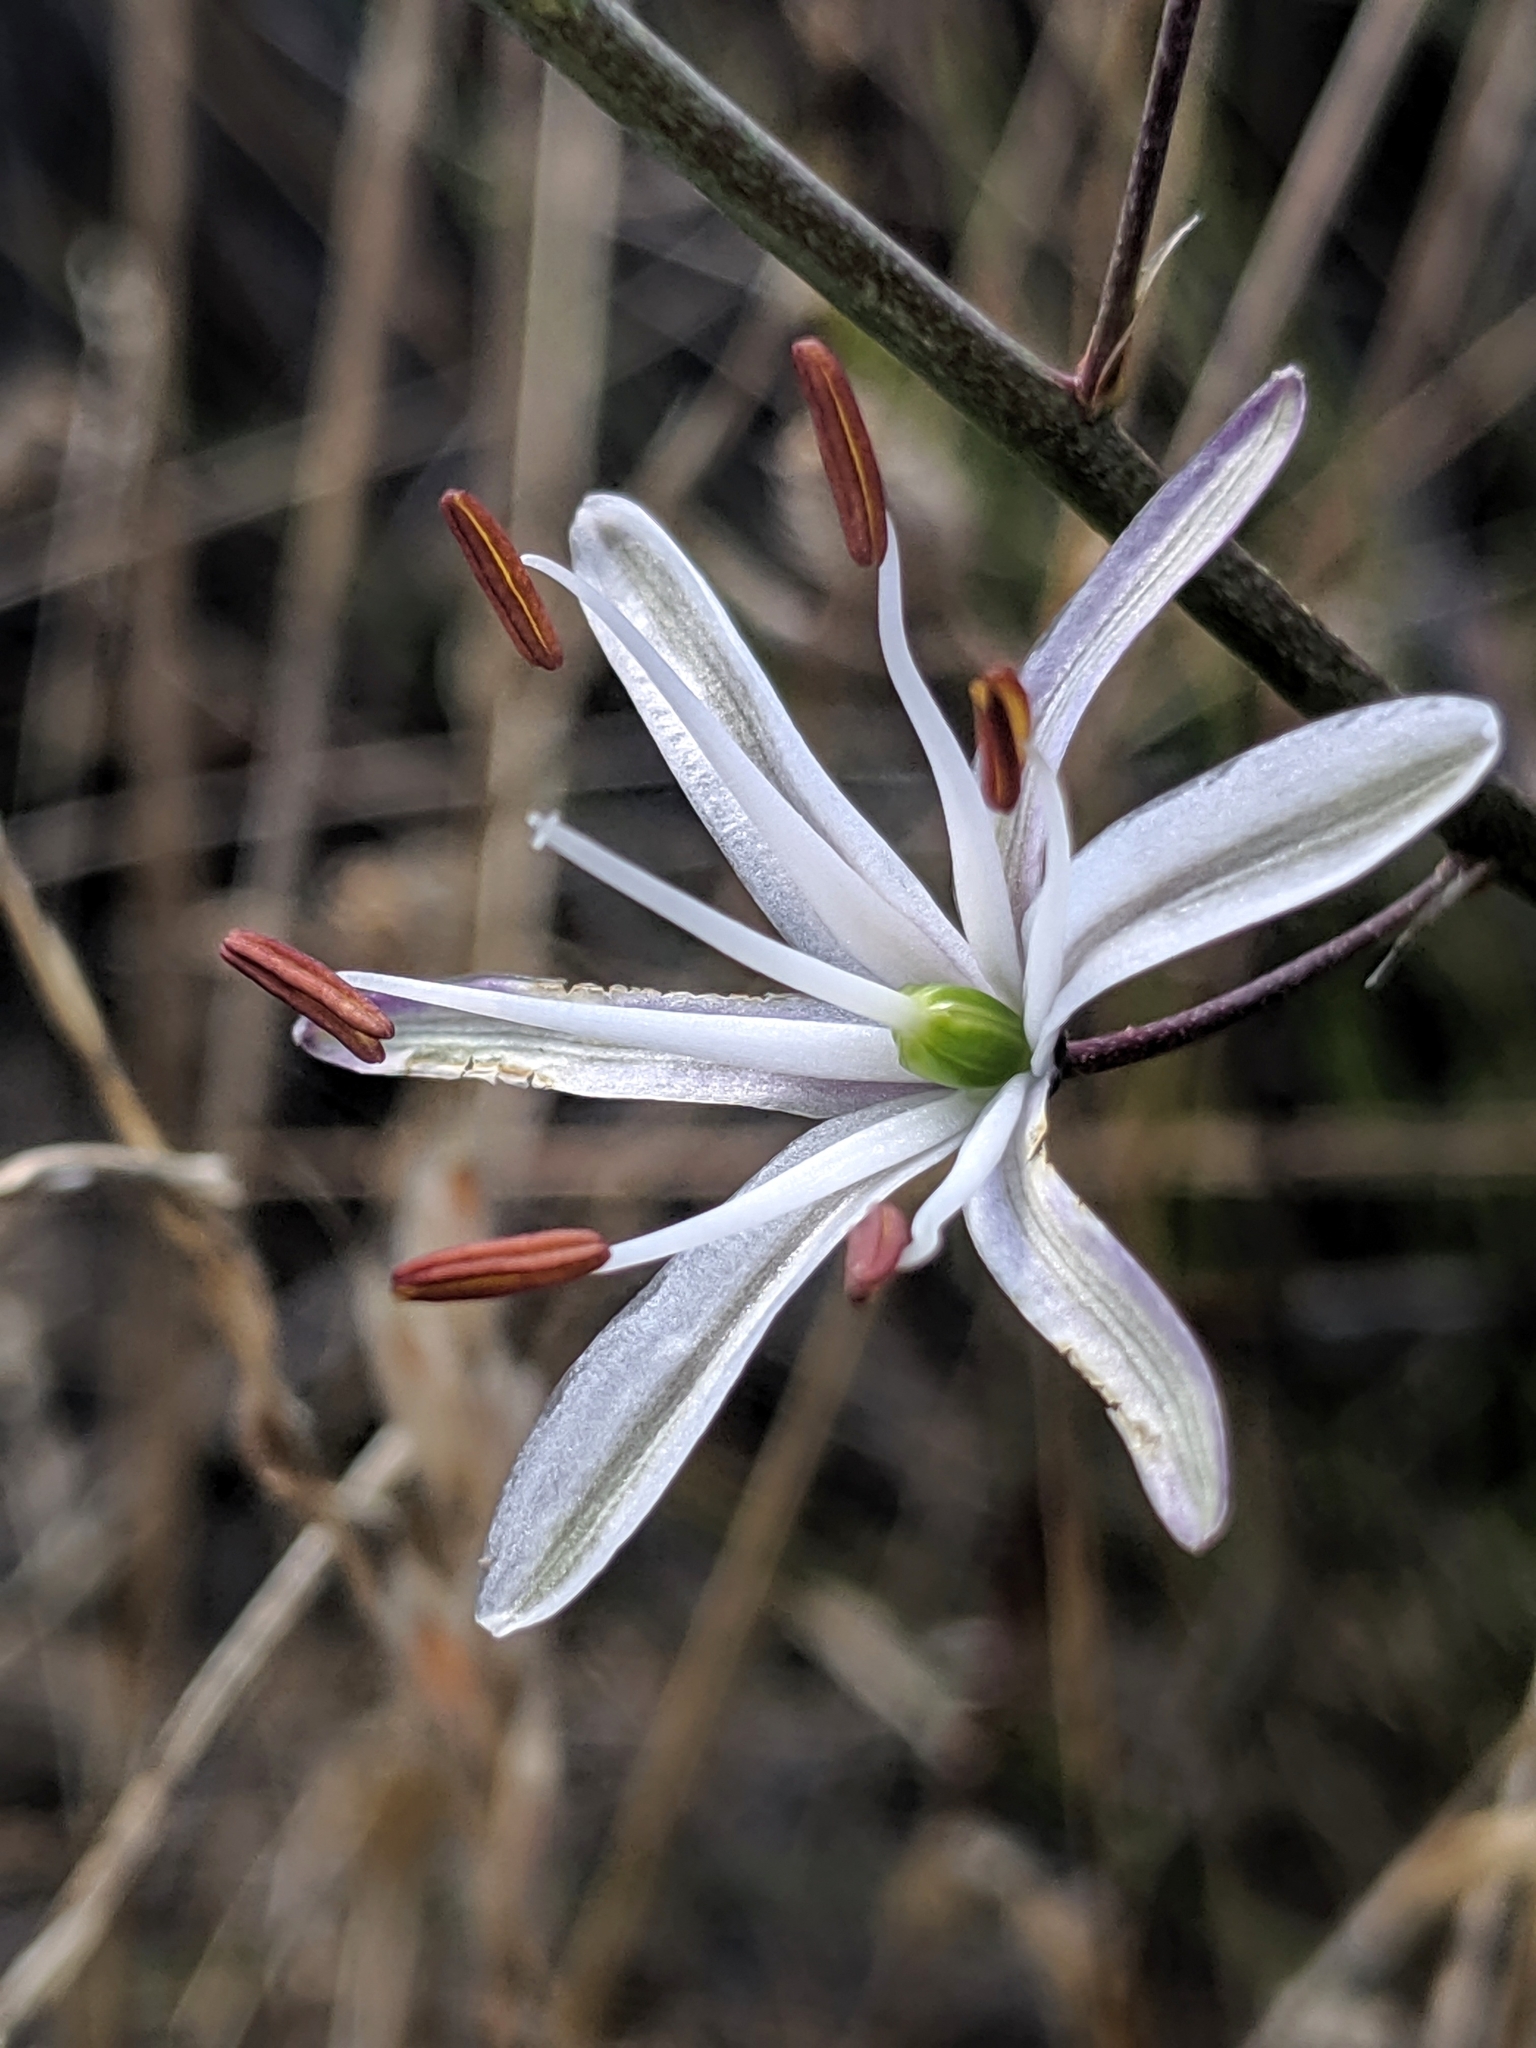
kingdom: Plantae
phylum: Tracheophyta
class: Liliopsida
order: Asparagales
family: Asparagaceae
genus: Chlorogalum
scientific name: Chlorogalum pomeridianum
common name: Amole
